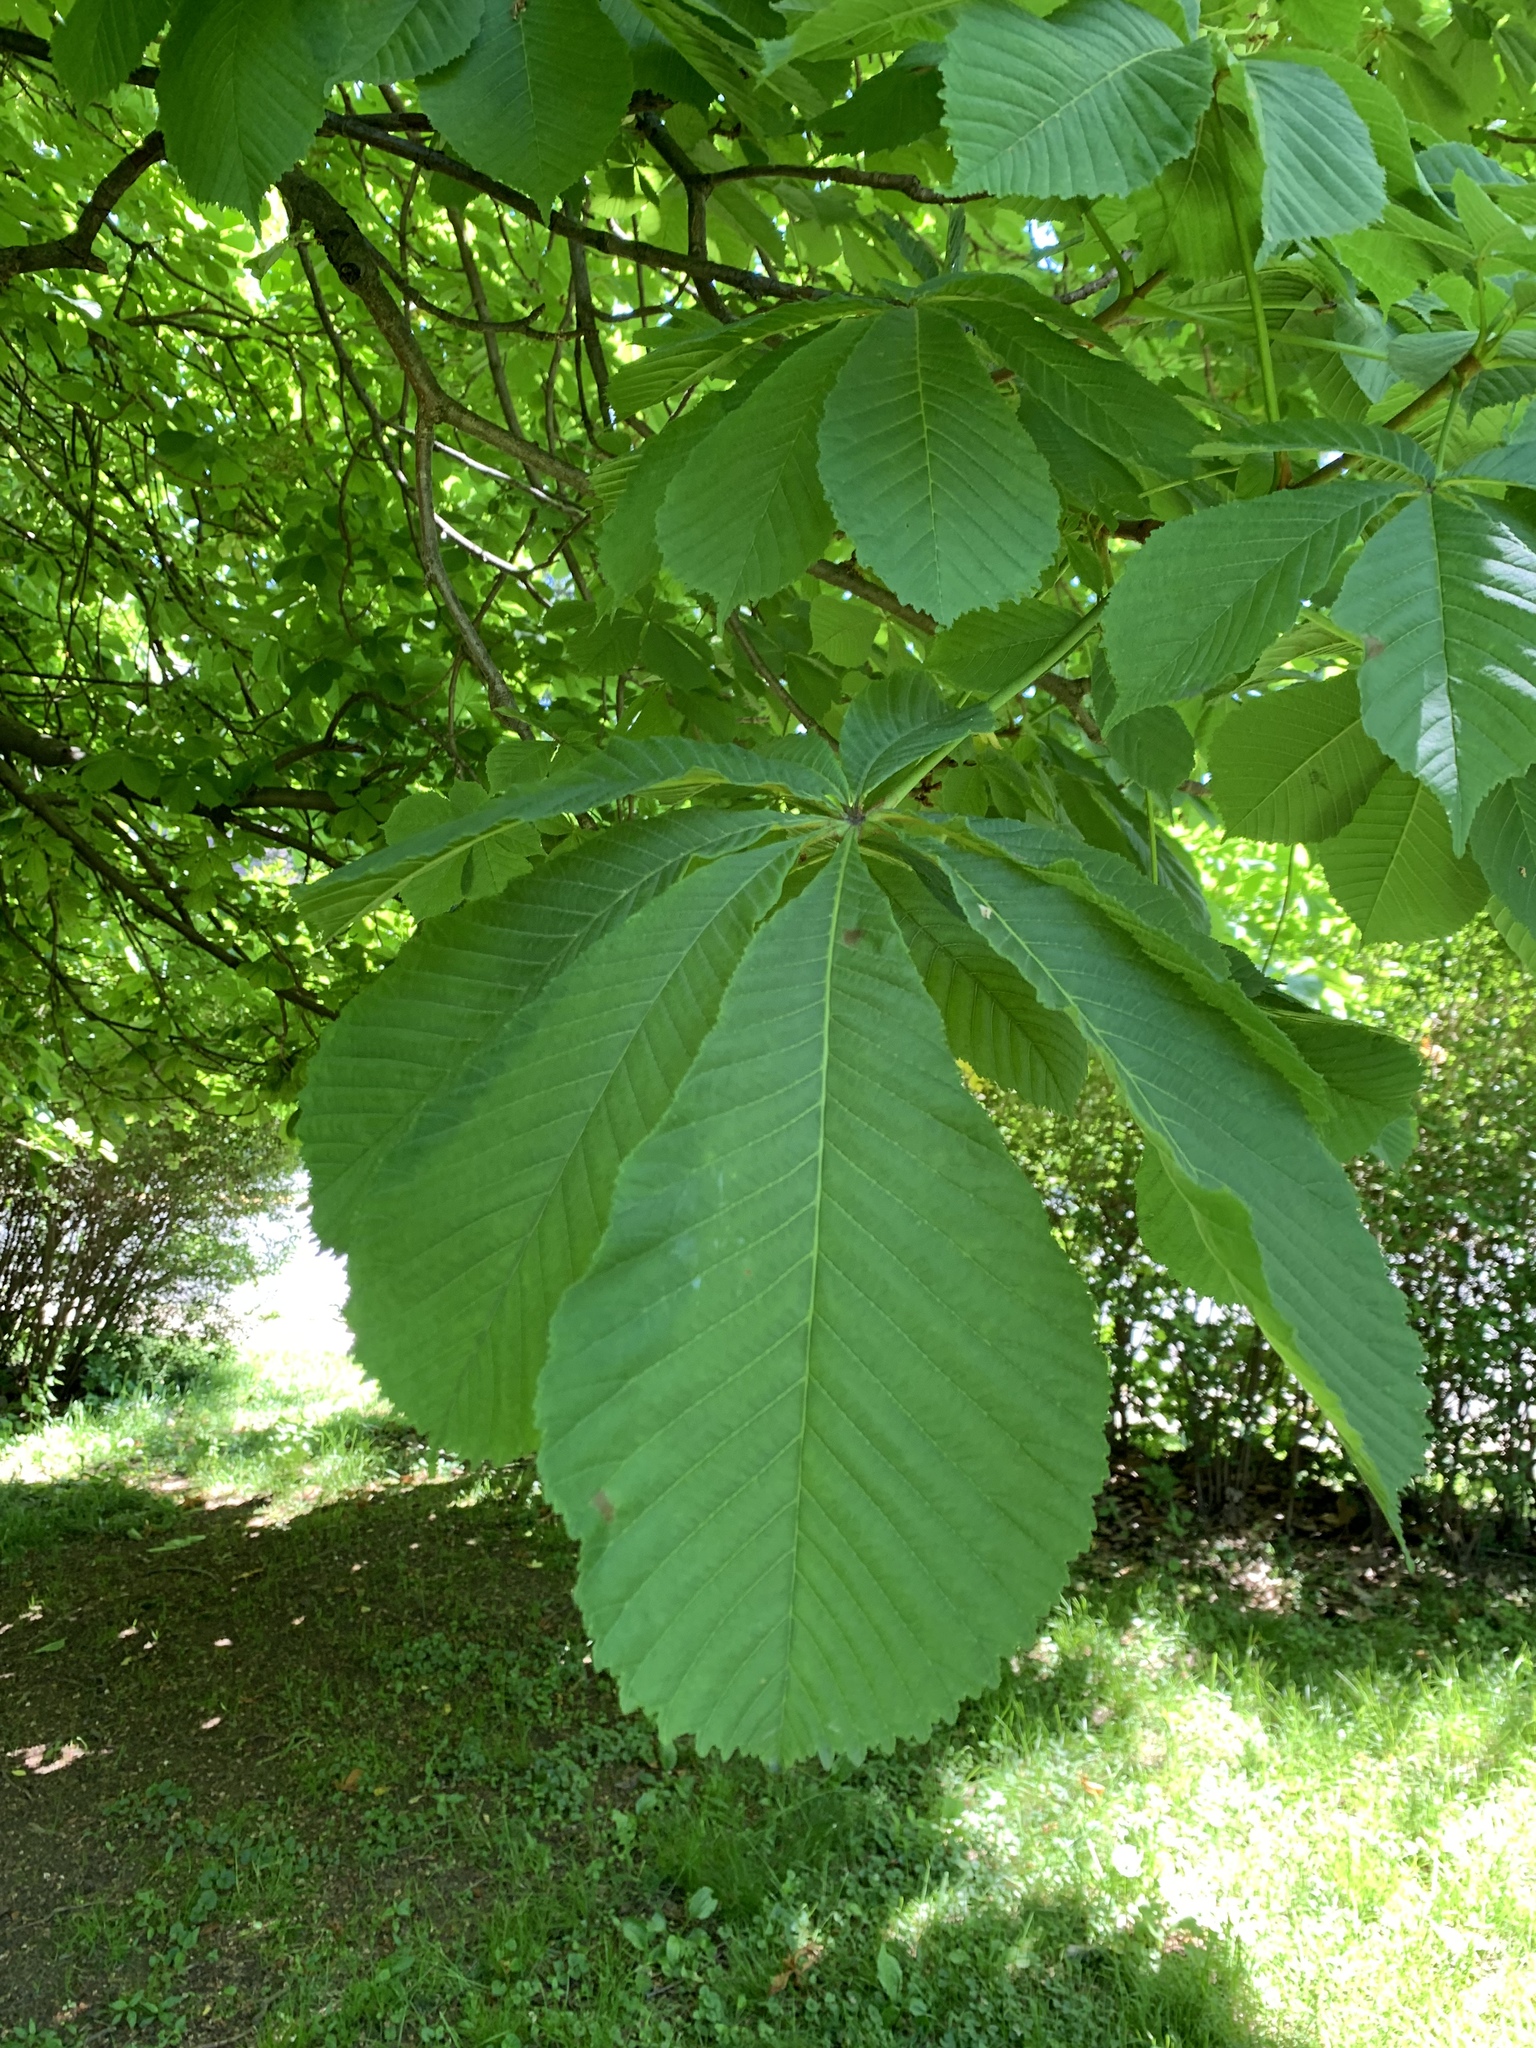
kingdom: Plantae
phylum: Tracheophyta
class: Magnoliopsida
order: Sapindales
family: Sapindaceae
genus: Aesculus
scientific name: Aesculus hippocastanum
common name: Horse-chestnut
